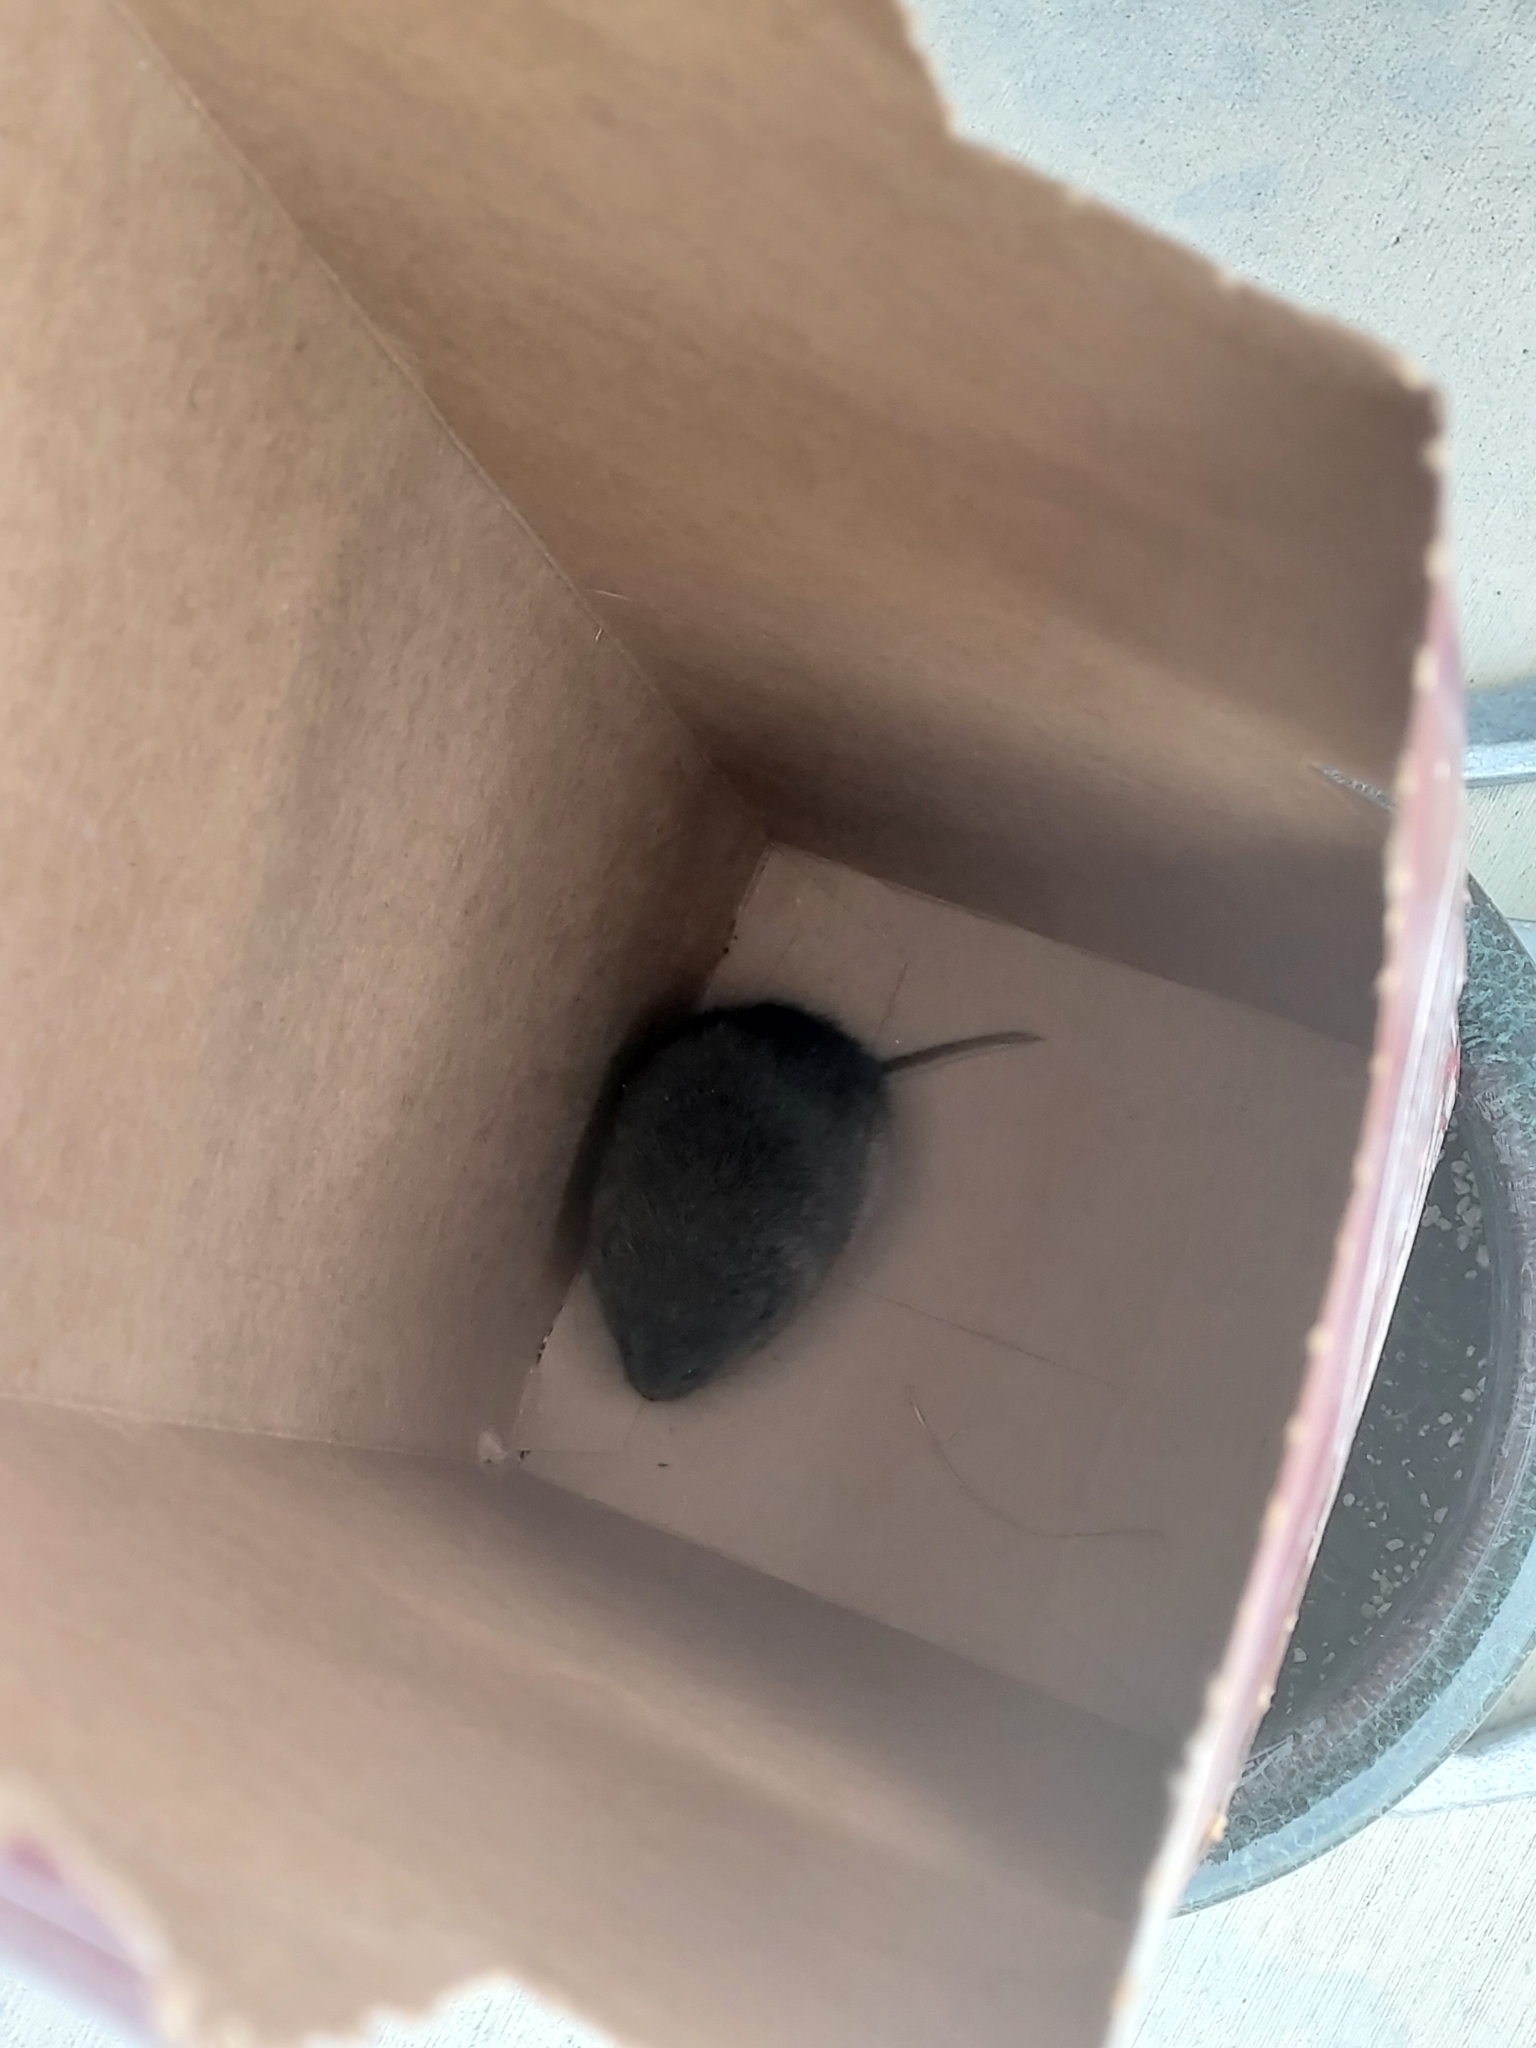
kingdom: Animalia
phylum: Chordata
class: Mammalia
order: Rodentia
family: Cricetidae
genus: Microtus
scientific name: Microtus pennsylvanicus
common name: Meadow vole
